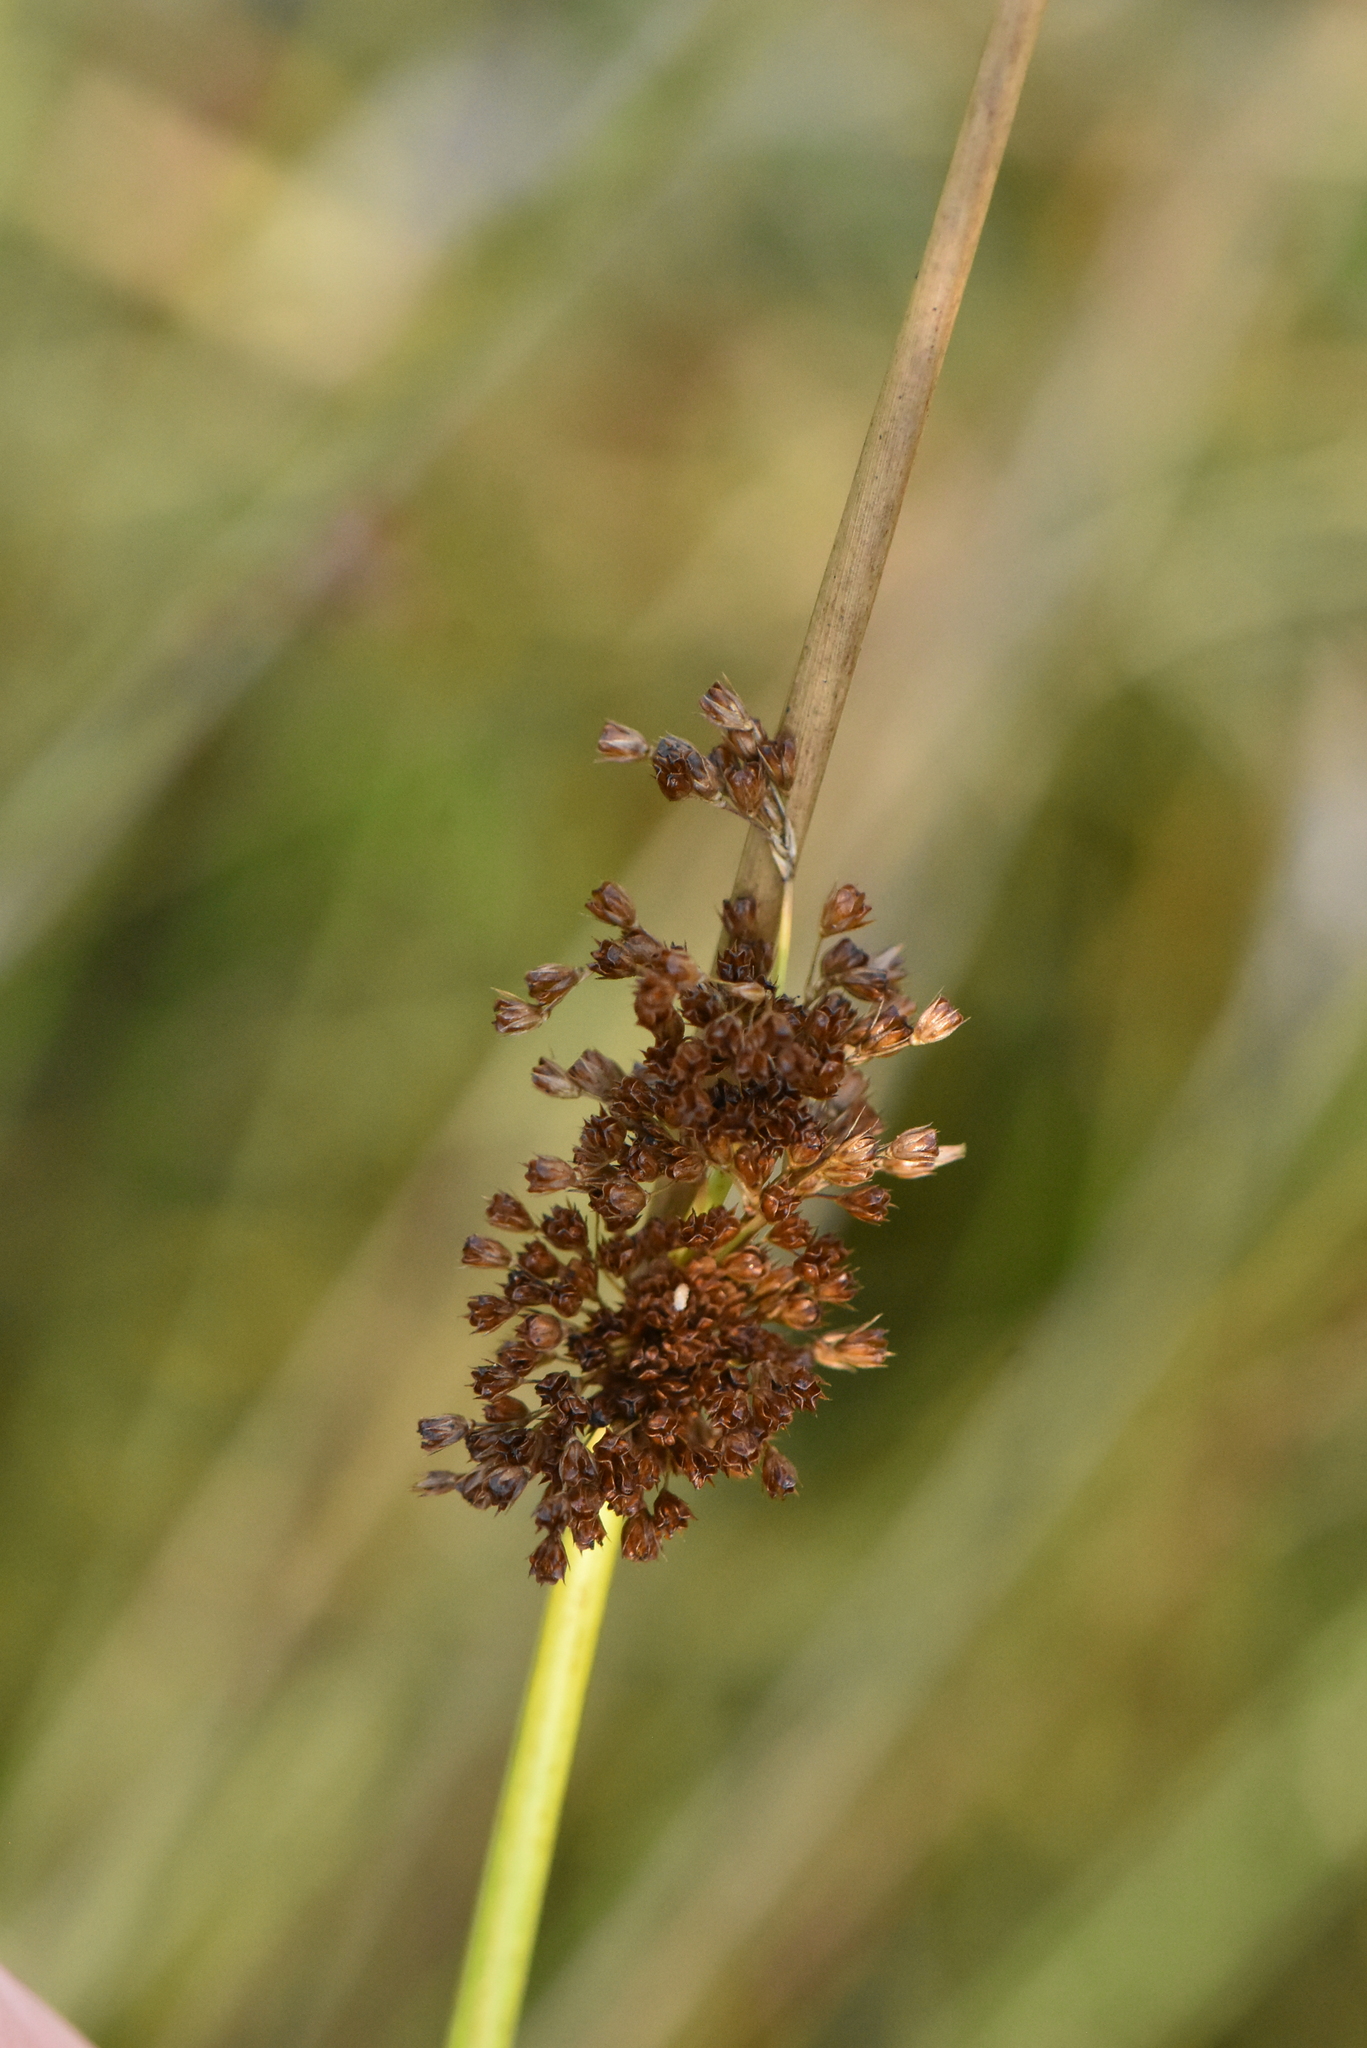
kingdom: Plantae
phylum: Tracheophyta
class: Liliopsida
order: Poales
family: Juncaceae
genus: Juncus
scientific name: Juncus effusus
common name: Soft rush
